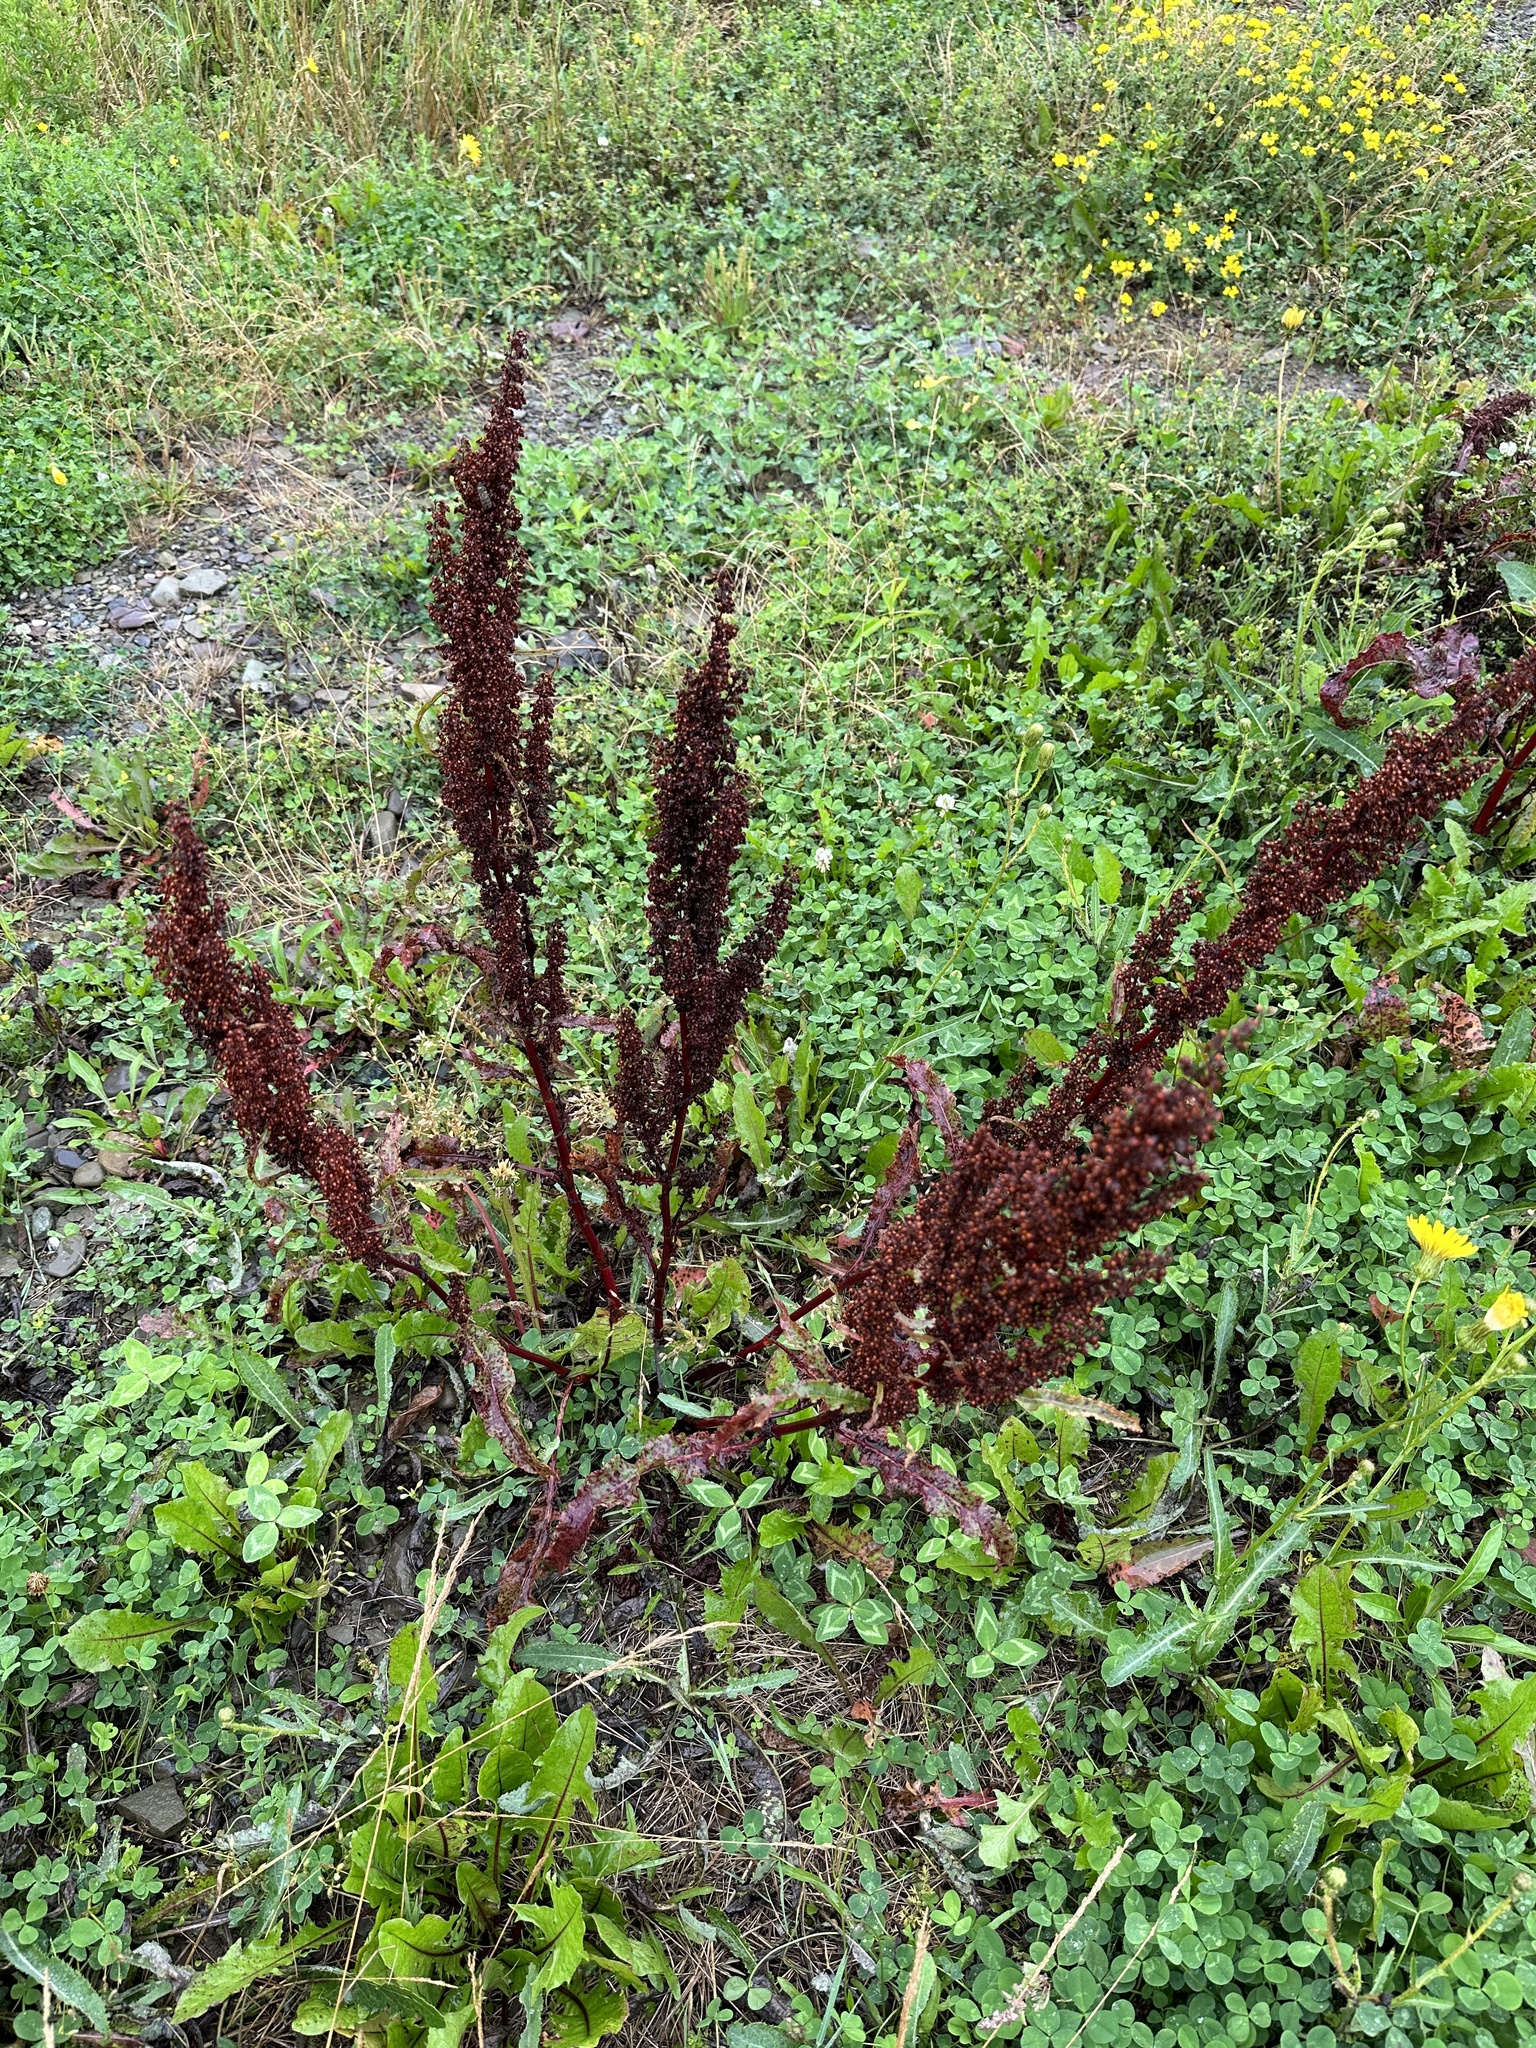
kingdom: Plantae
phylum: Tracheophyta
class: Magnoliopsida
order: Caryophyllales
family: Polygonaceae
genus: Rumex
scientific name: Rumex crispus
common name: Curled dock
